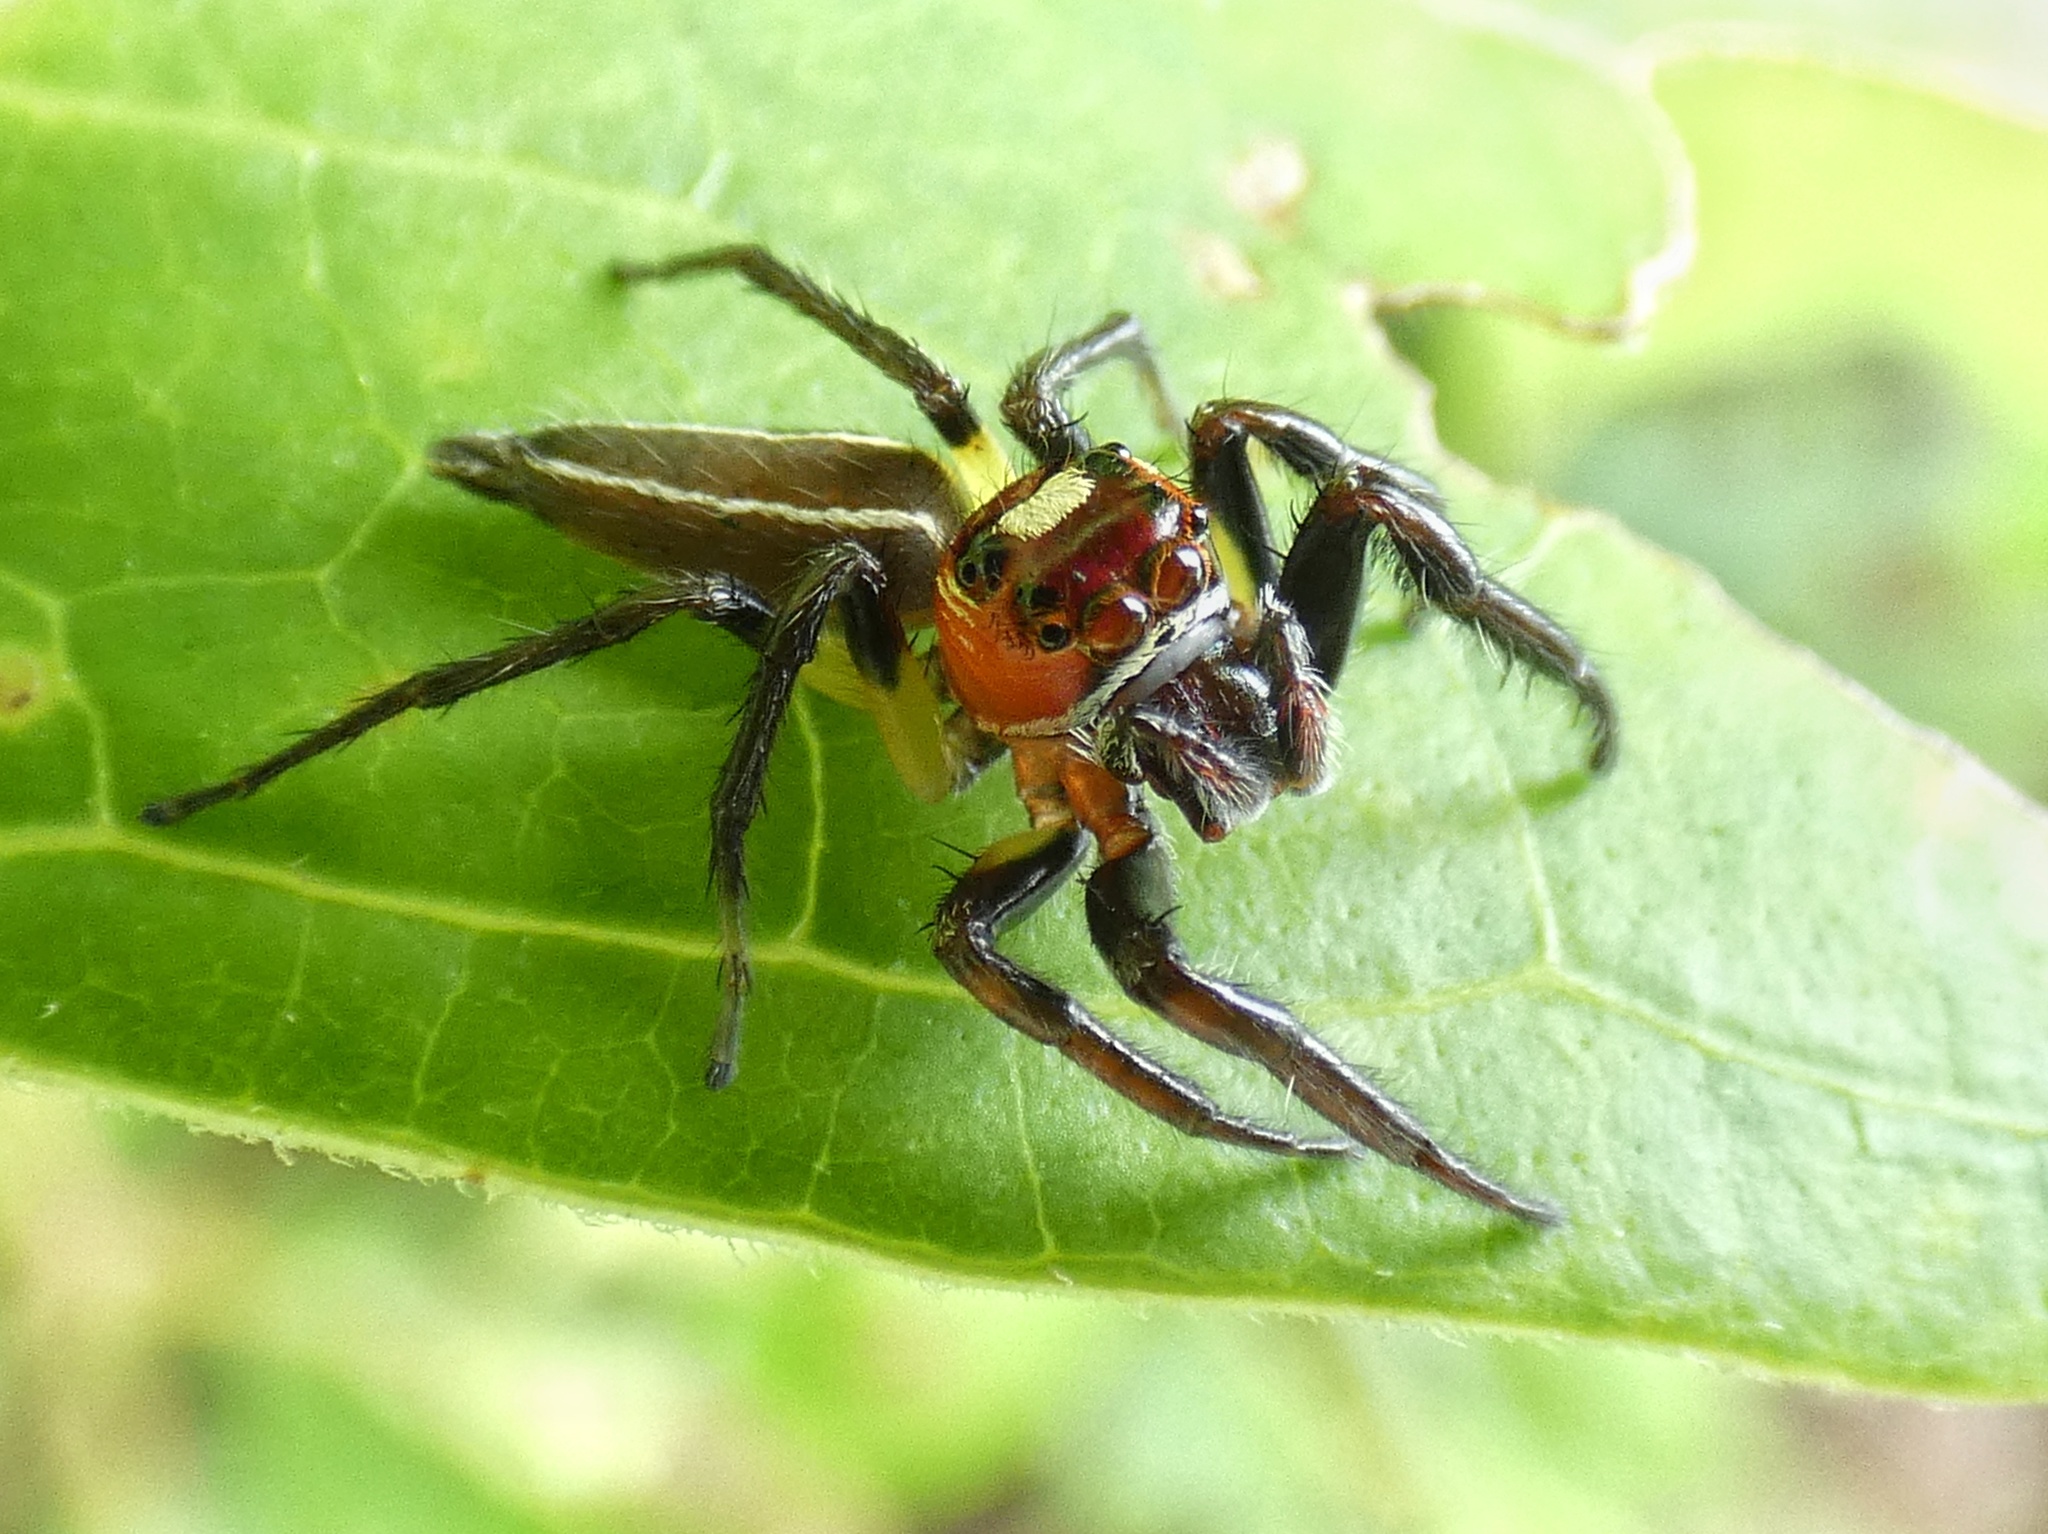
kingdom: Animalia
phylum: Arthropoda
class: Arachnida
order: Araneae
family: Salticidae
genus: Colonus
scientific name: Colonus sylvanus
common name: Jumping spiders
